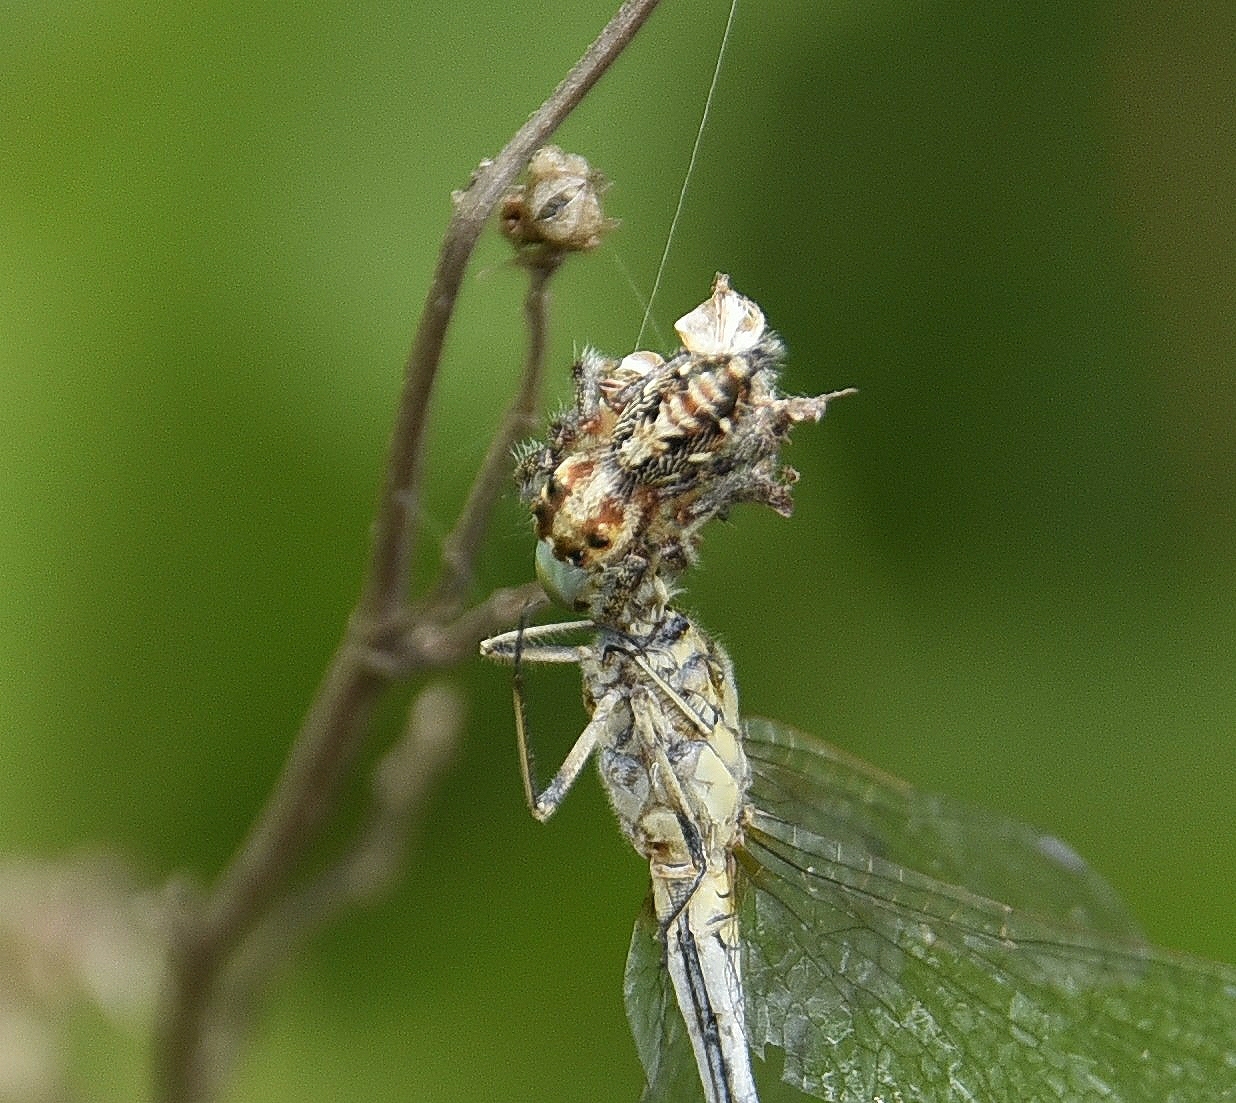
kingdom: Animalia
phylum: Arthropoda
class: Arachnida
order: Araneae
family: Salticidae
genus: Hyllus
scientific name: Hyllus semicupreus
